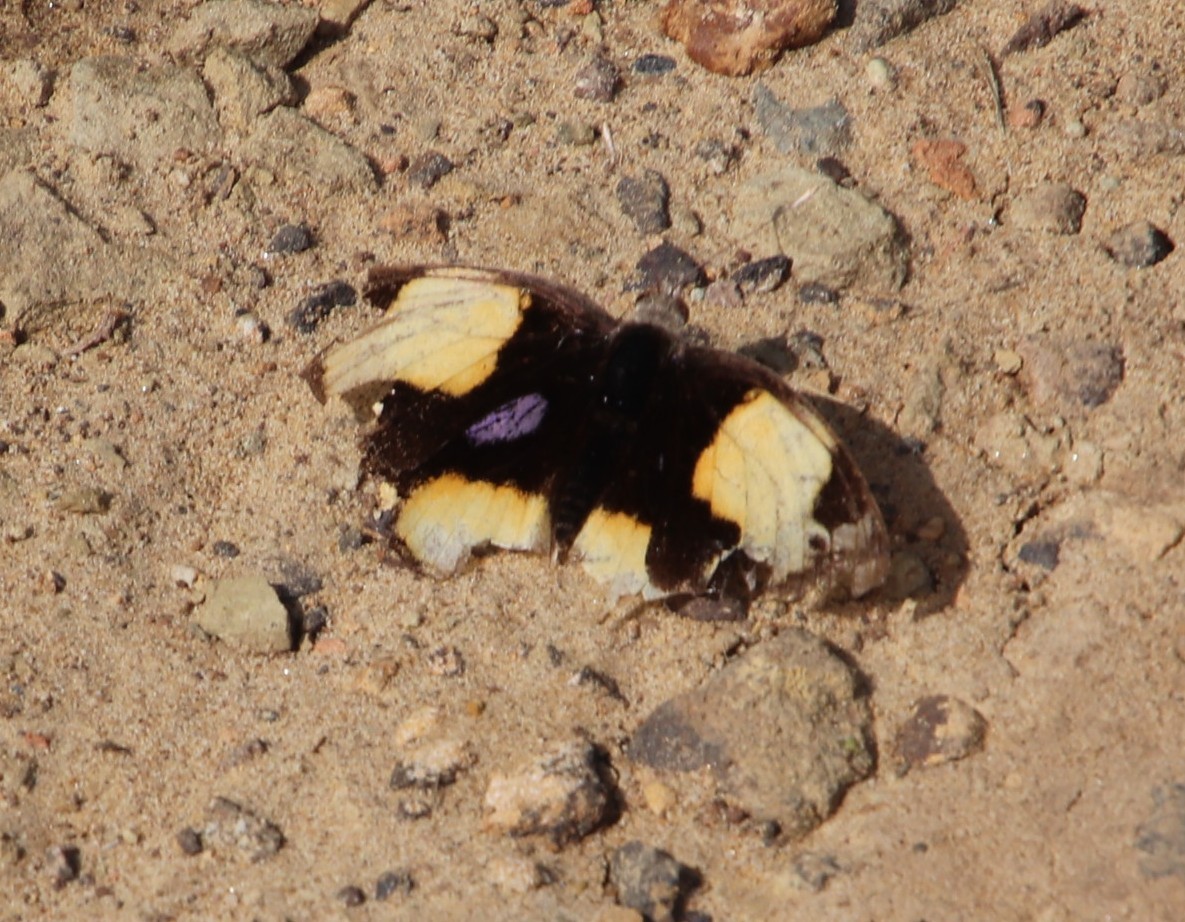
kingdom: Animalia
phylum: Arthropoda
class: Insecta
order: Lepidoptera
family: Nymphalidae
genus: Junonia
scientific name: Junonia hierta
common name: Yellow pansy
